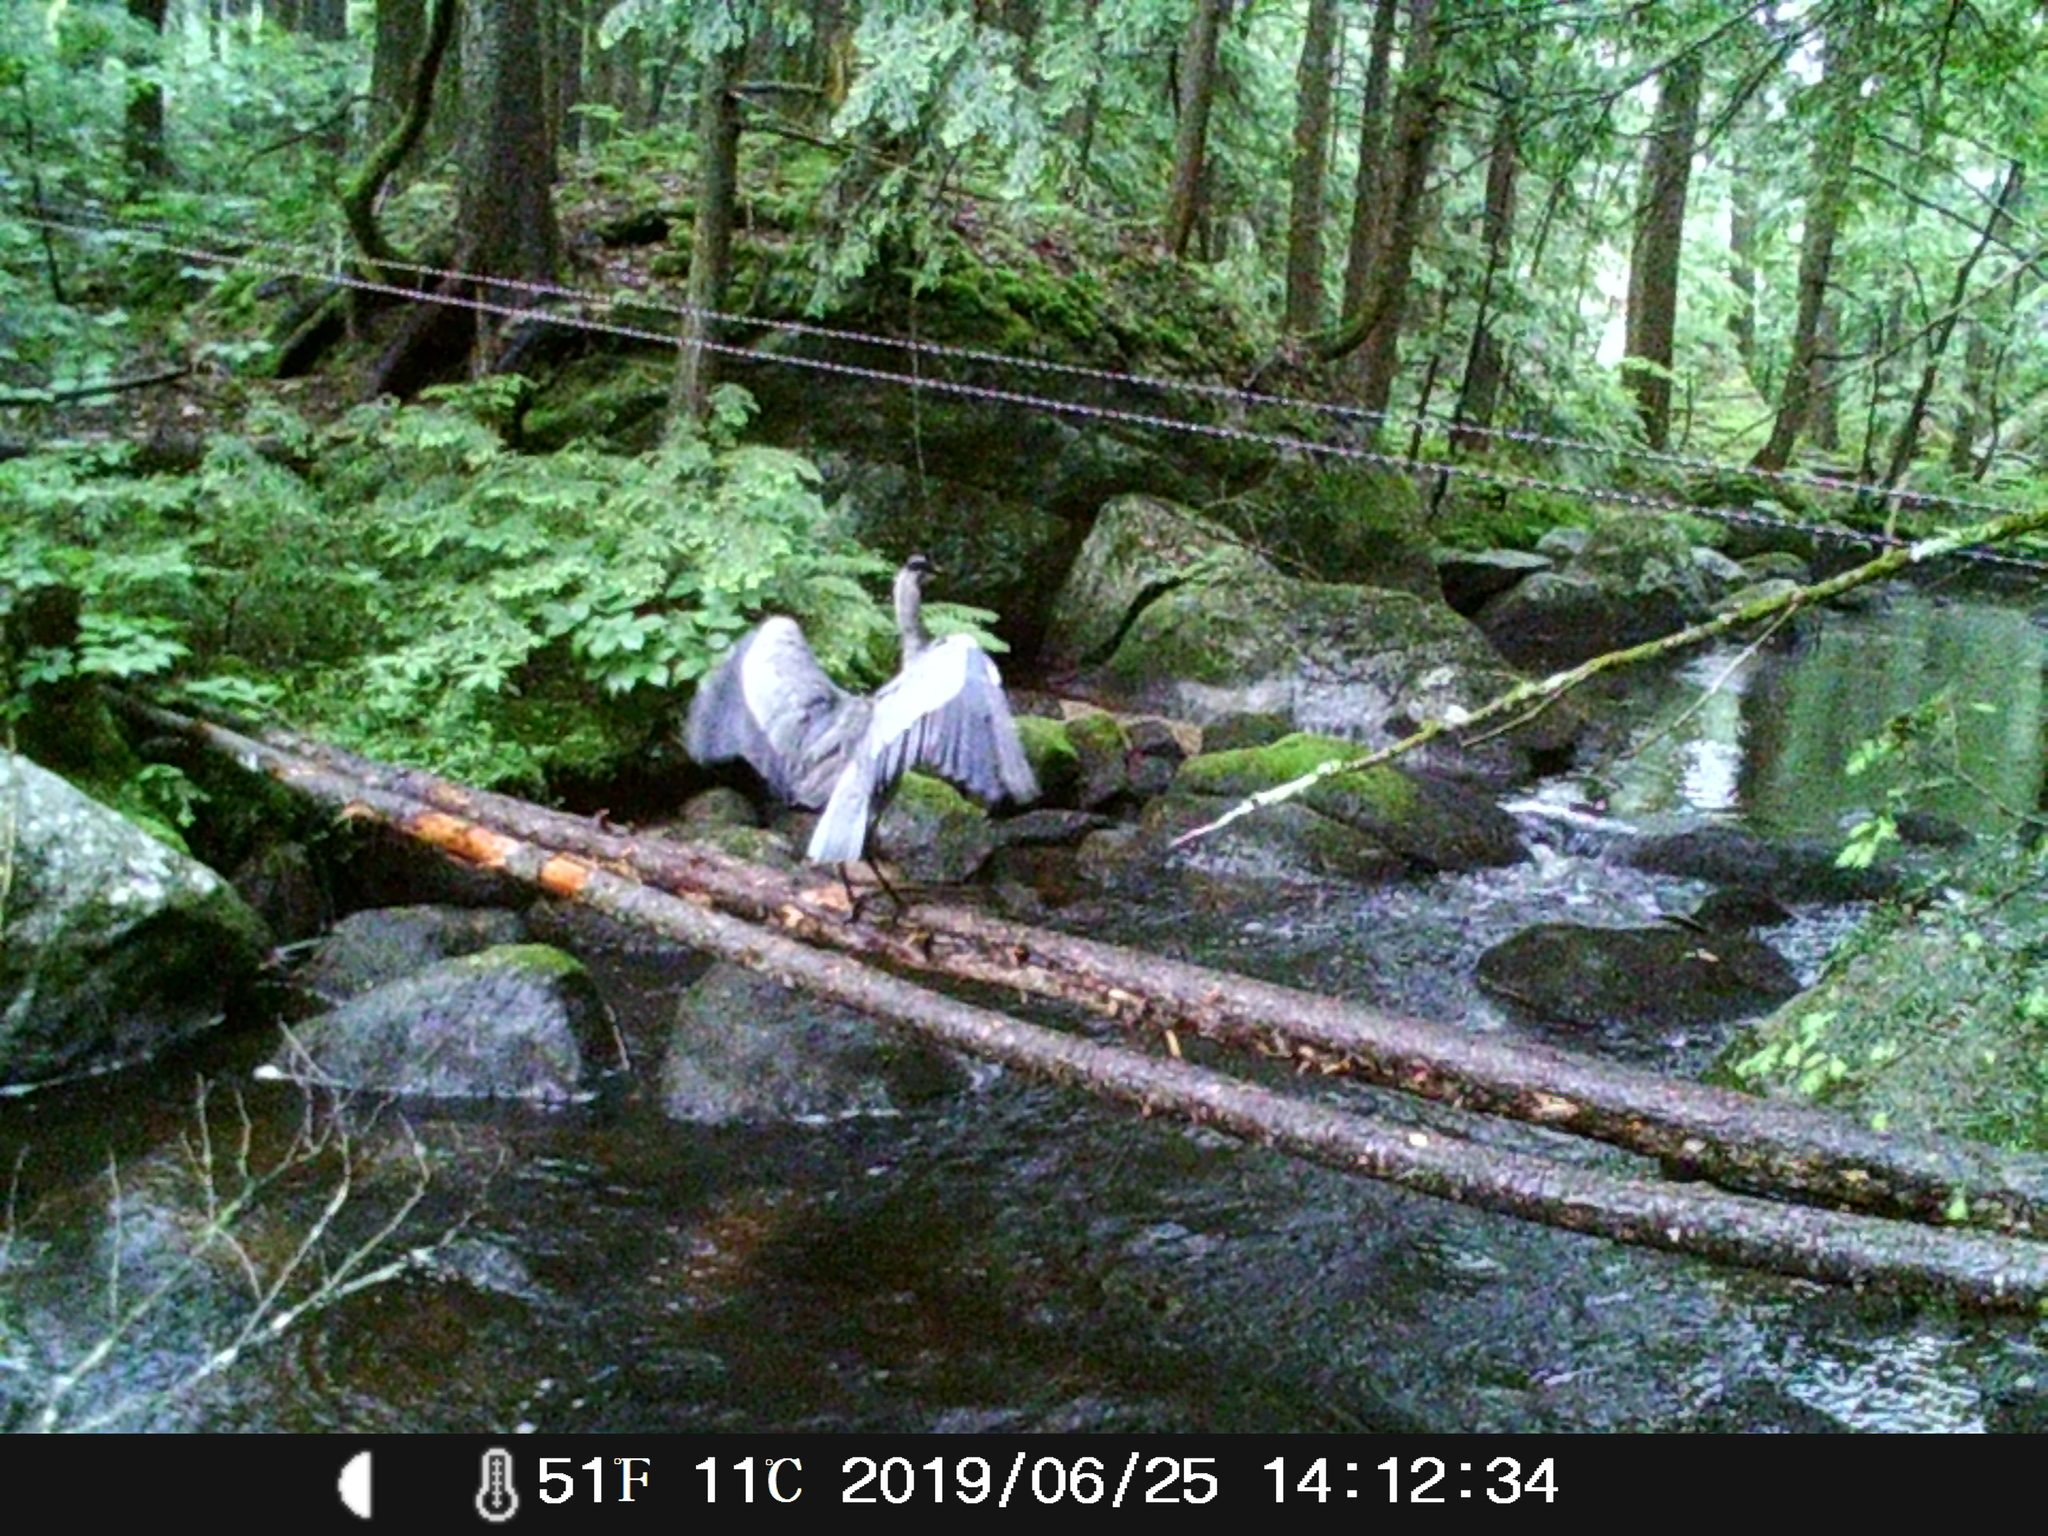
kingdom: Animalia
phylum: Chordata
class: Aves
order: Pelecaniformes
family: Ardeidae
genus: Ardea
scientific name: Ardea herodias
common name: Great blue heron
